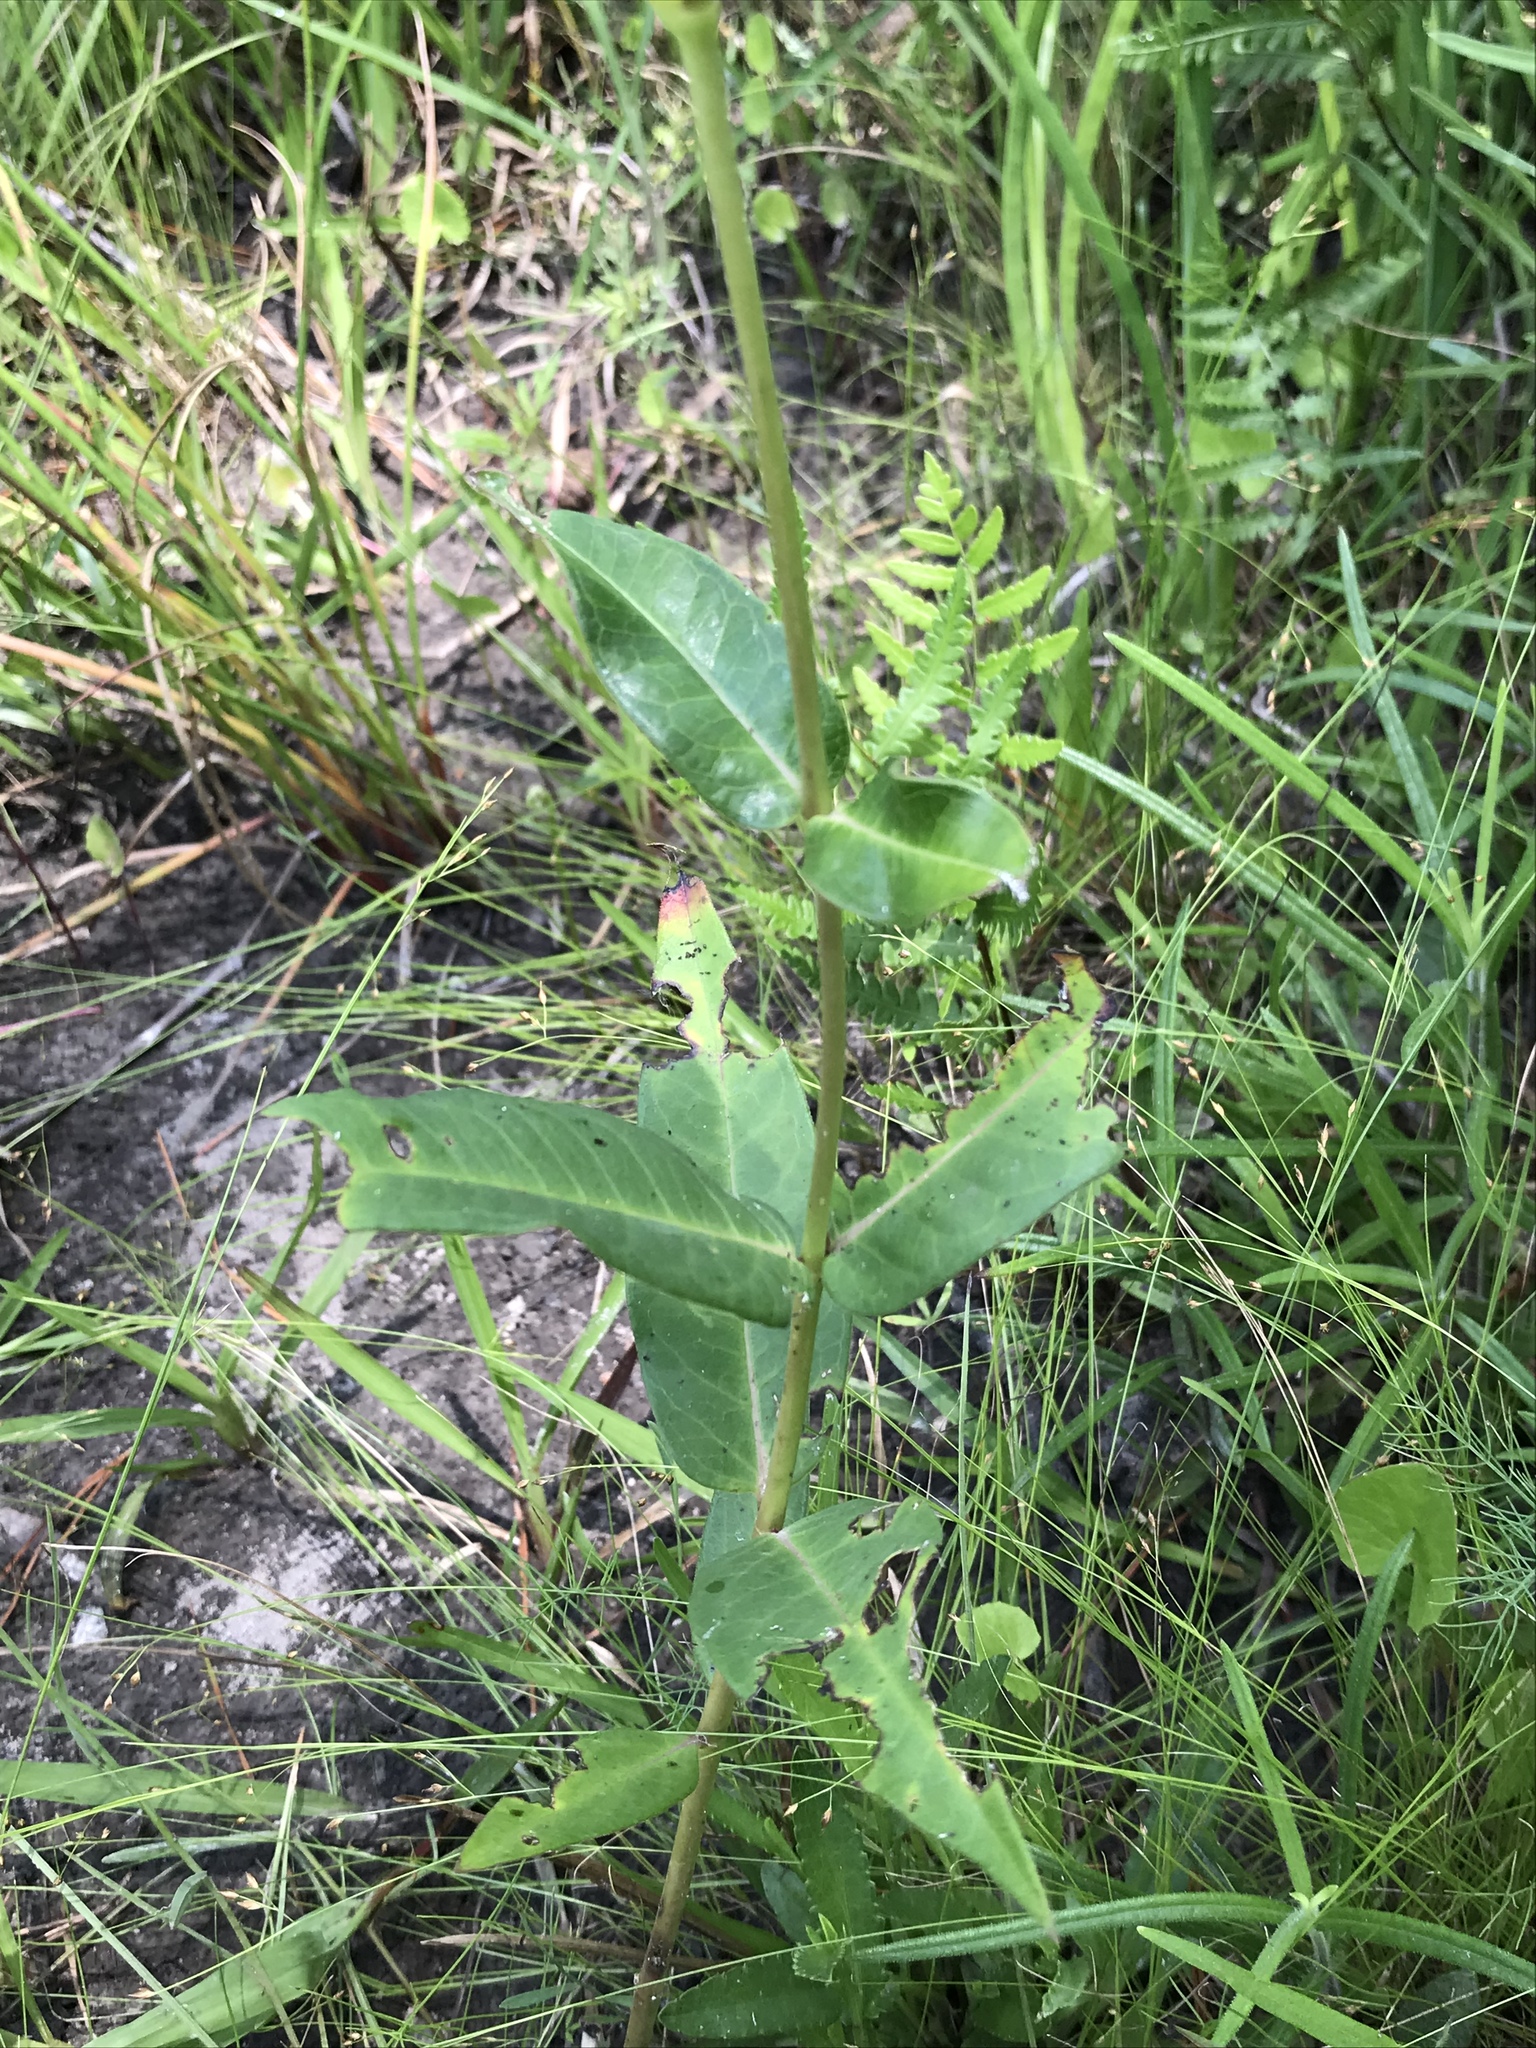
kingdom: Plantae
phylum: Tracheophyta
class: Magnoliopsida
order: Gentianales
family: Apocynaceae
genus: Asclepias
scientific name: Asclepias rubra
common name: Red milkweed
